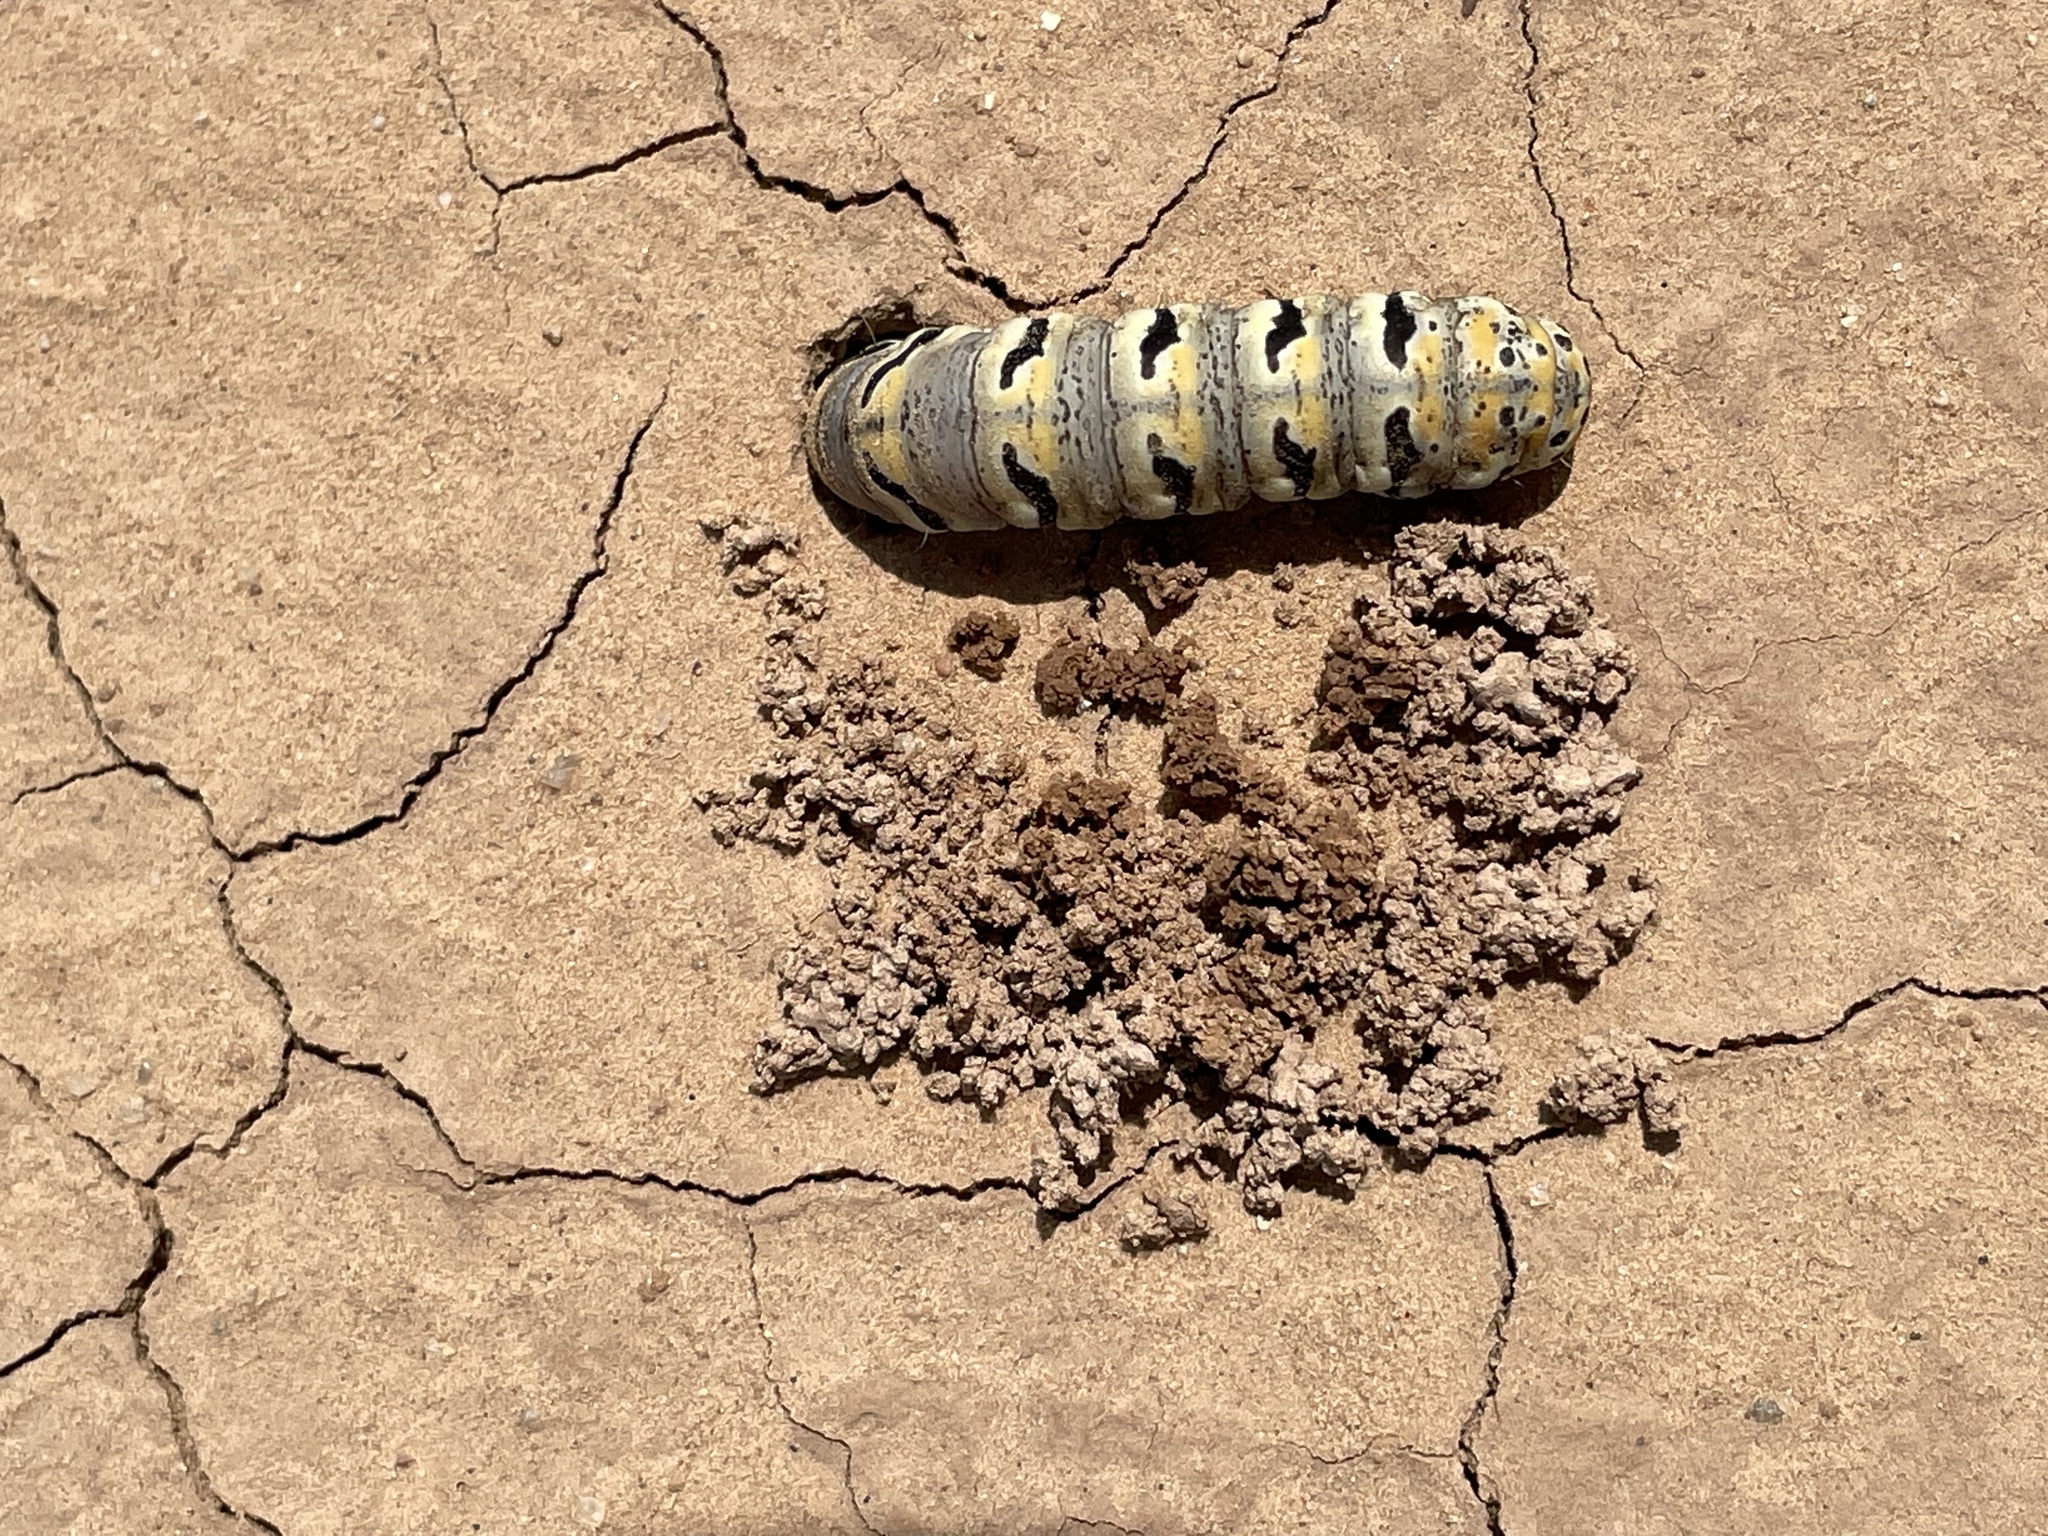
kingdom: Animalia
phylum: Arthropoda
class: Insecta
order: Lepidoptera
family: Noctuidae
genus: Euscirrhopterus
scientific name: Euscirrhopterus gloveri
